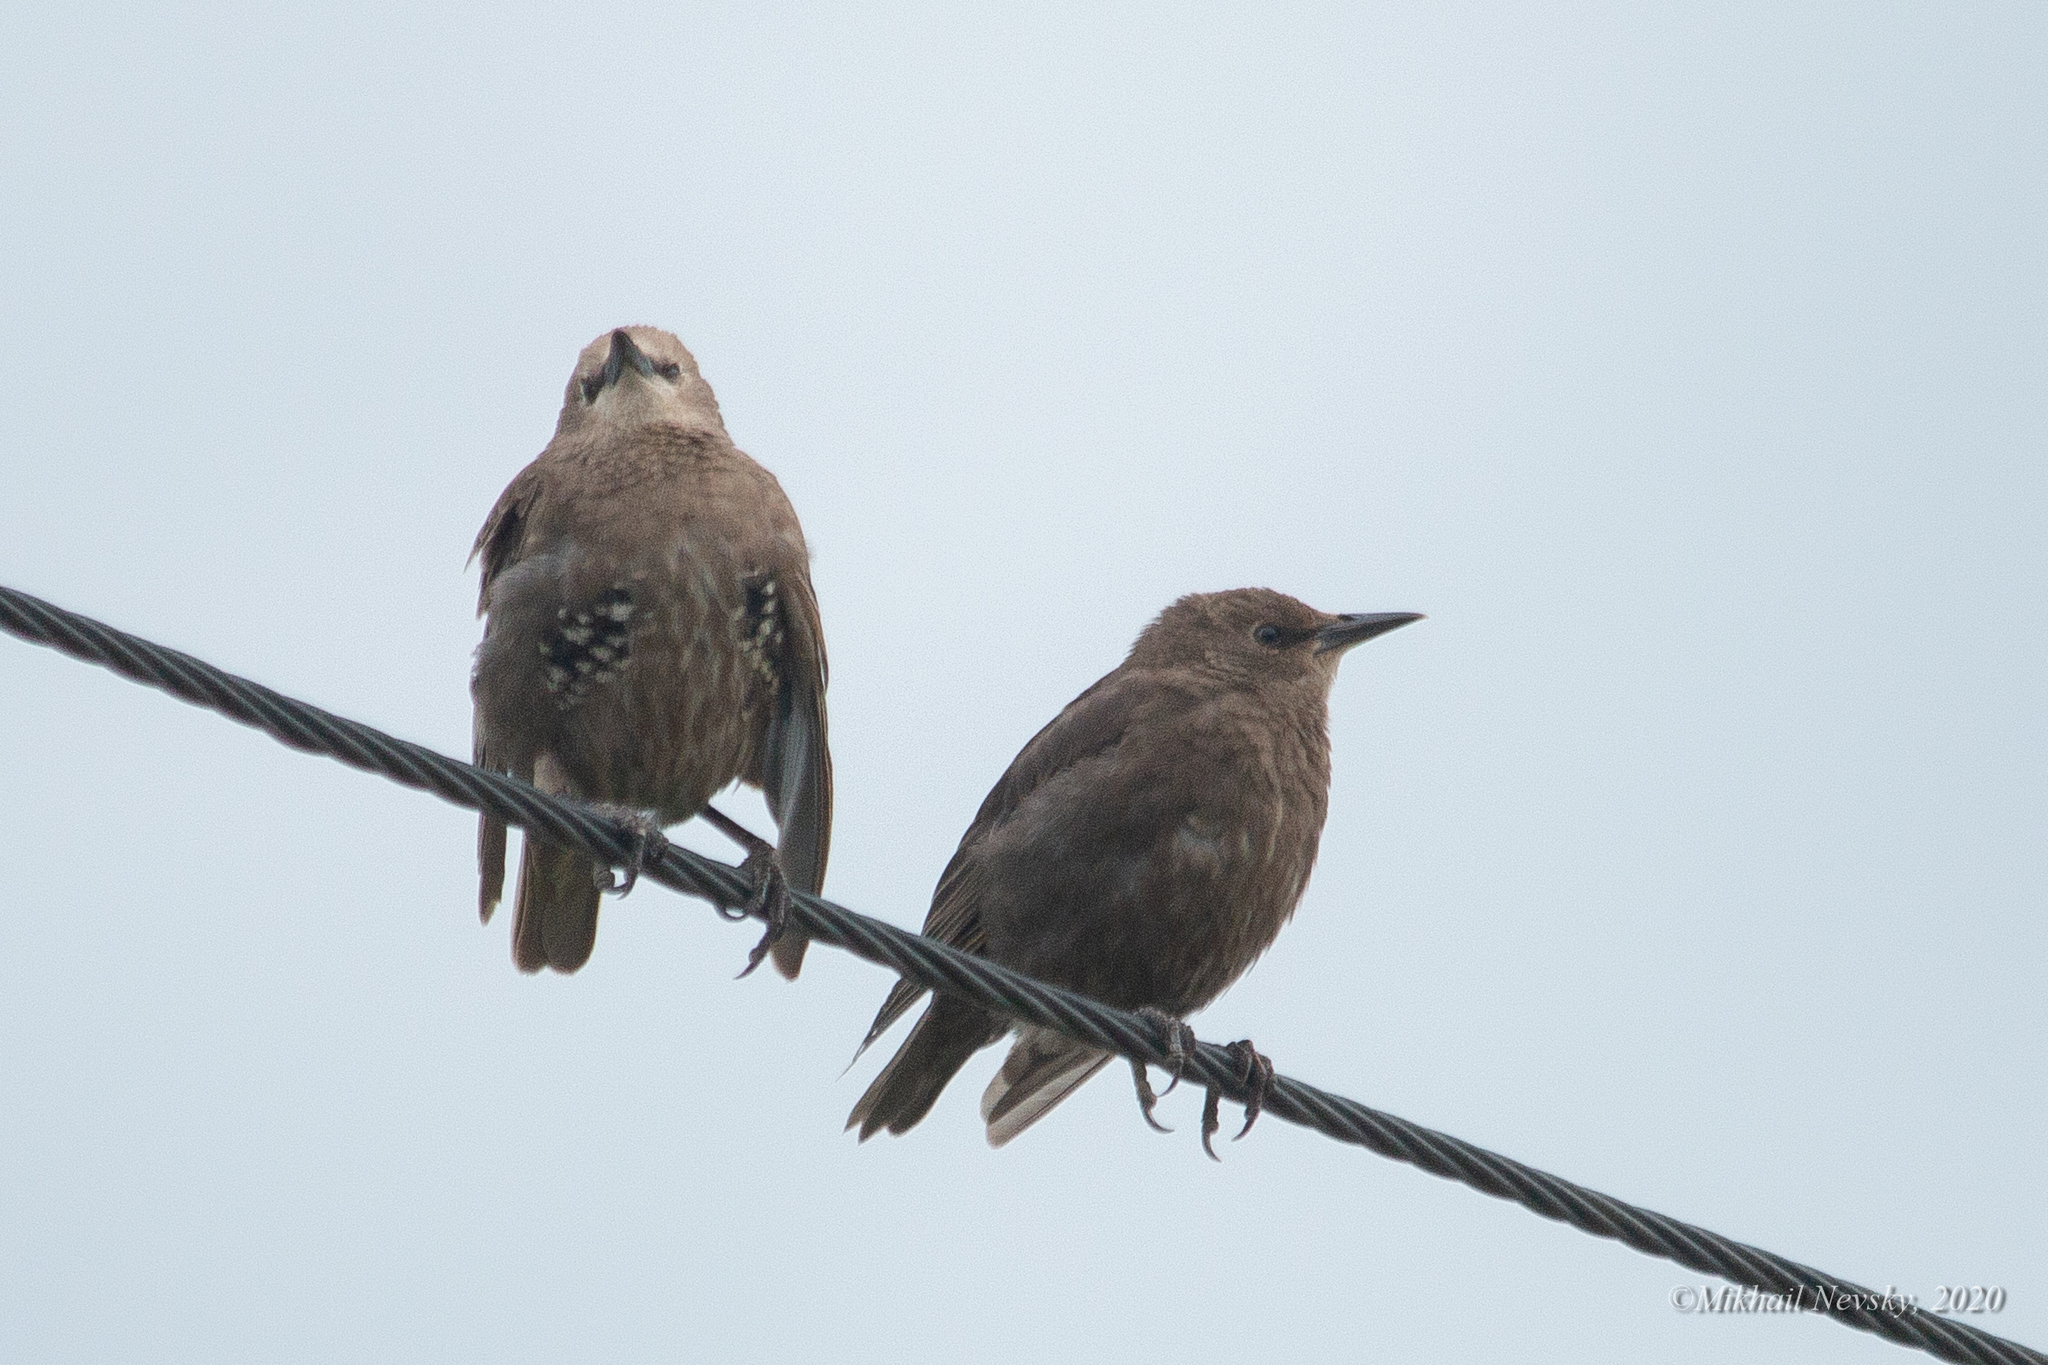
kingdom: Animalia
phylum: Chordata
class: Aves
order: Passeriformes
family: Sturnidae
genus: Sturnus
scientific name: Sturnus vulgaris
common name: Common starling
